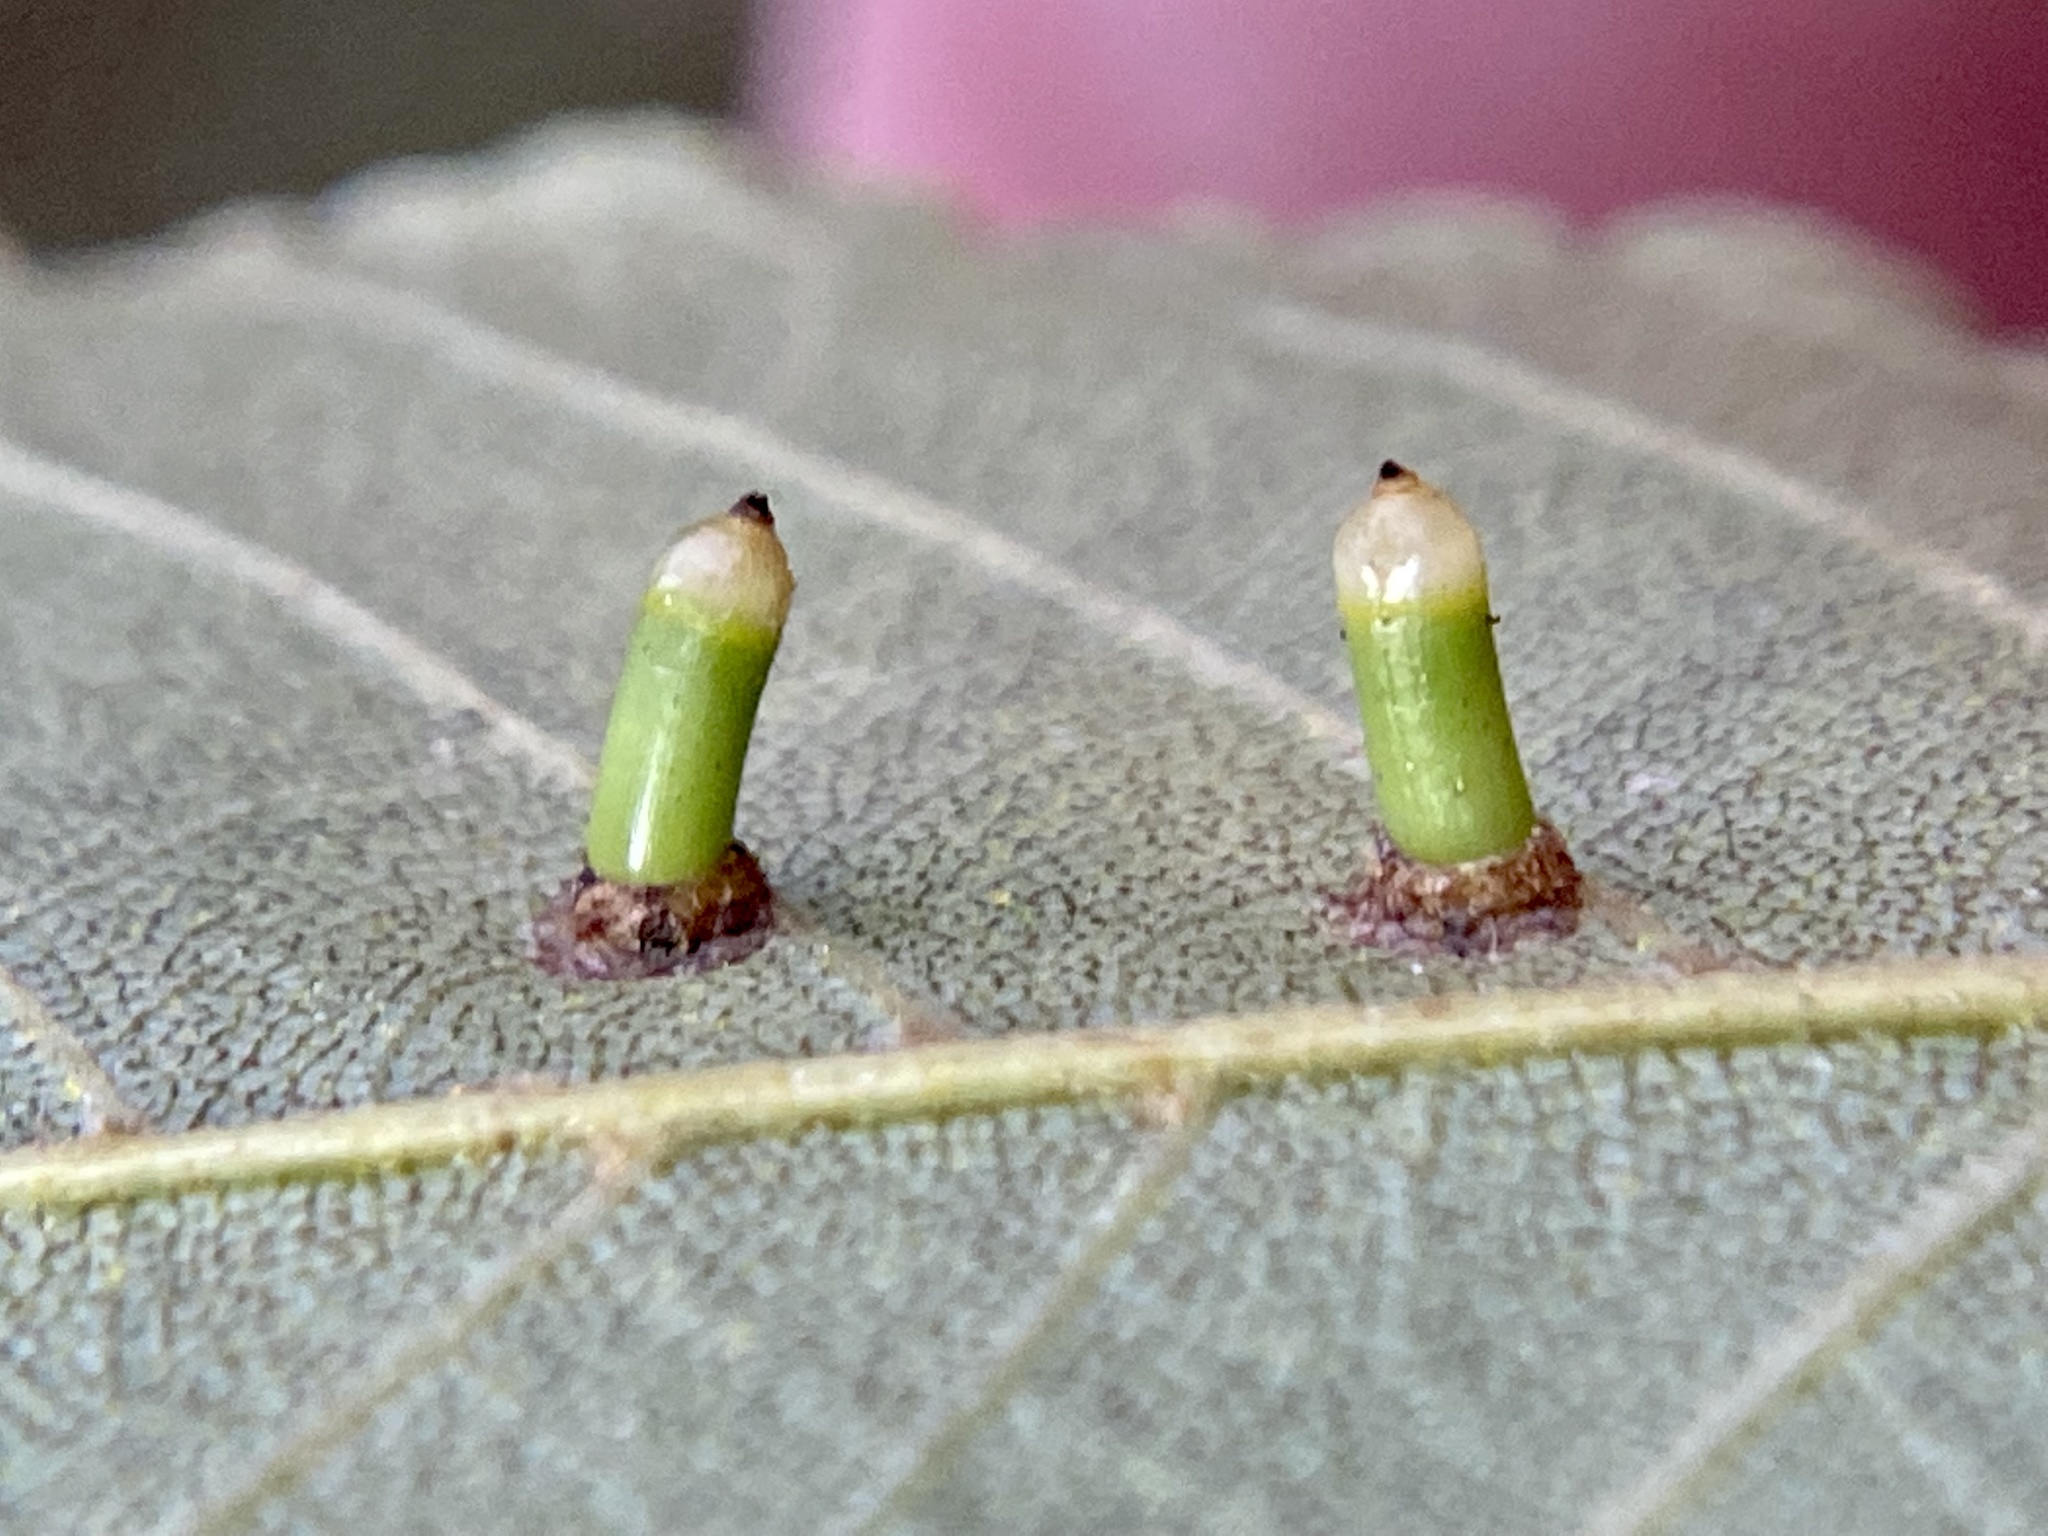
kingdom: Animalia
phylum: Arthropoda
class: Insecta
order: Diptera
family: Cecidomyiidae
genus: Caryomyia
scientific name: Caryomyia tubicola
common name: Hickory bullet gall midge
